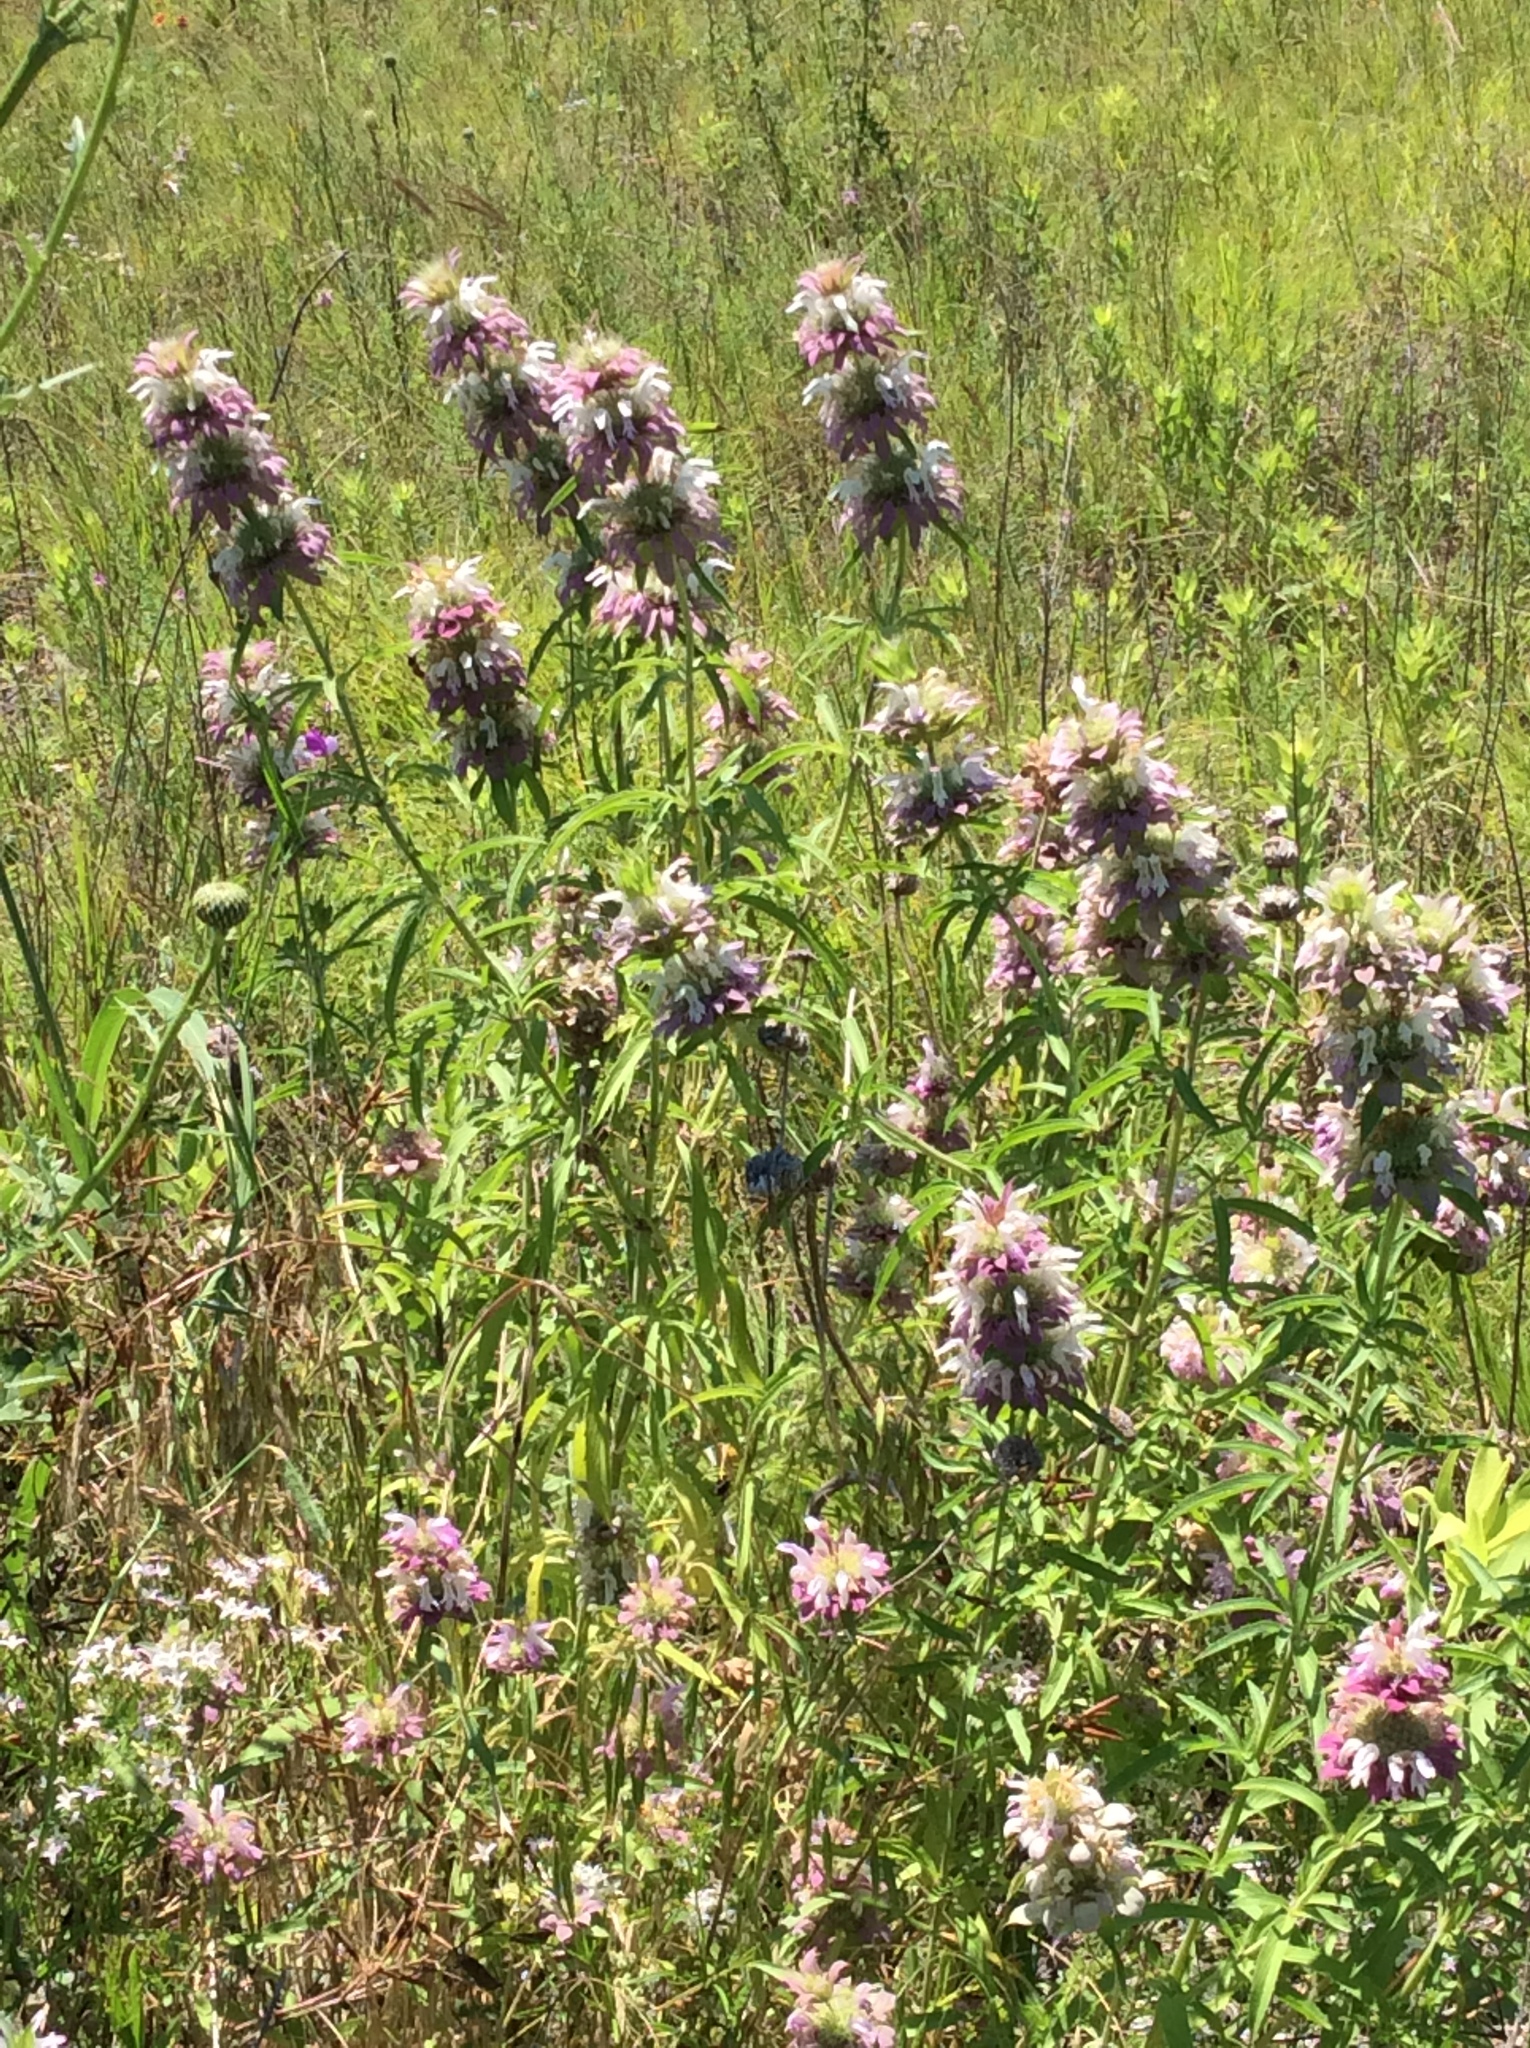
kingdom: Plantae
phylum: Tracheophyta
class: Magnoliopsida
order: Lamiales
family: Lamiaceae
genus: Monarda
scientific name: Monarda citriodora
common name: Lemon beebalm
